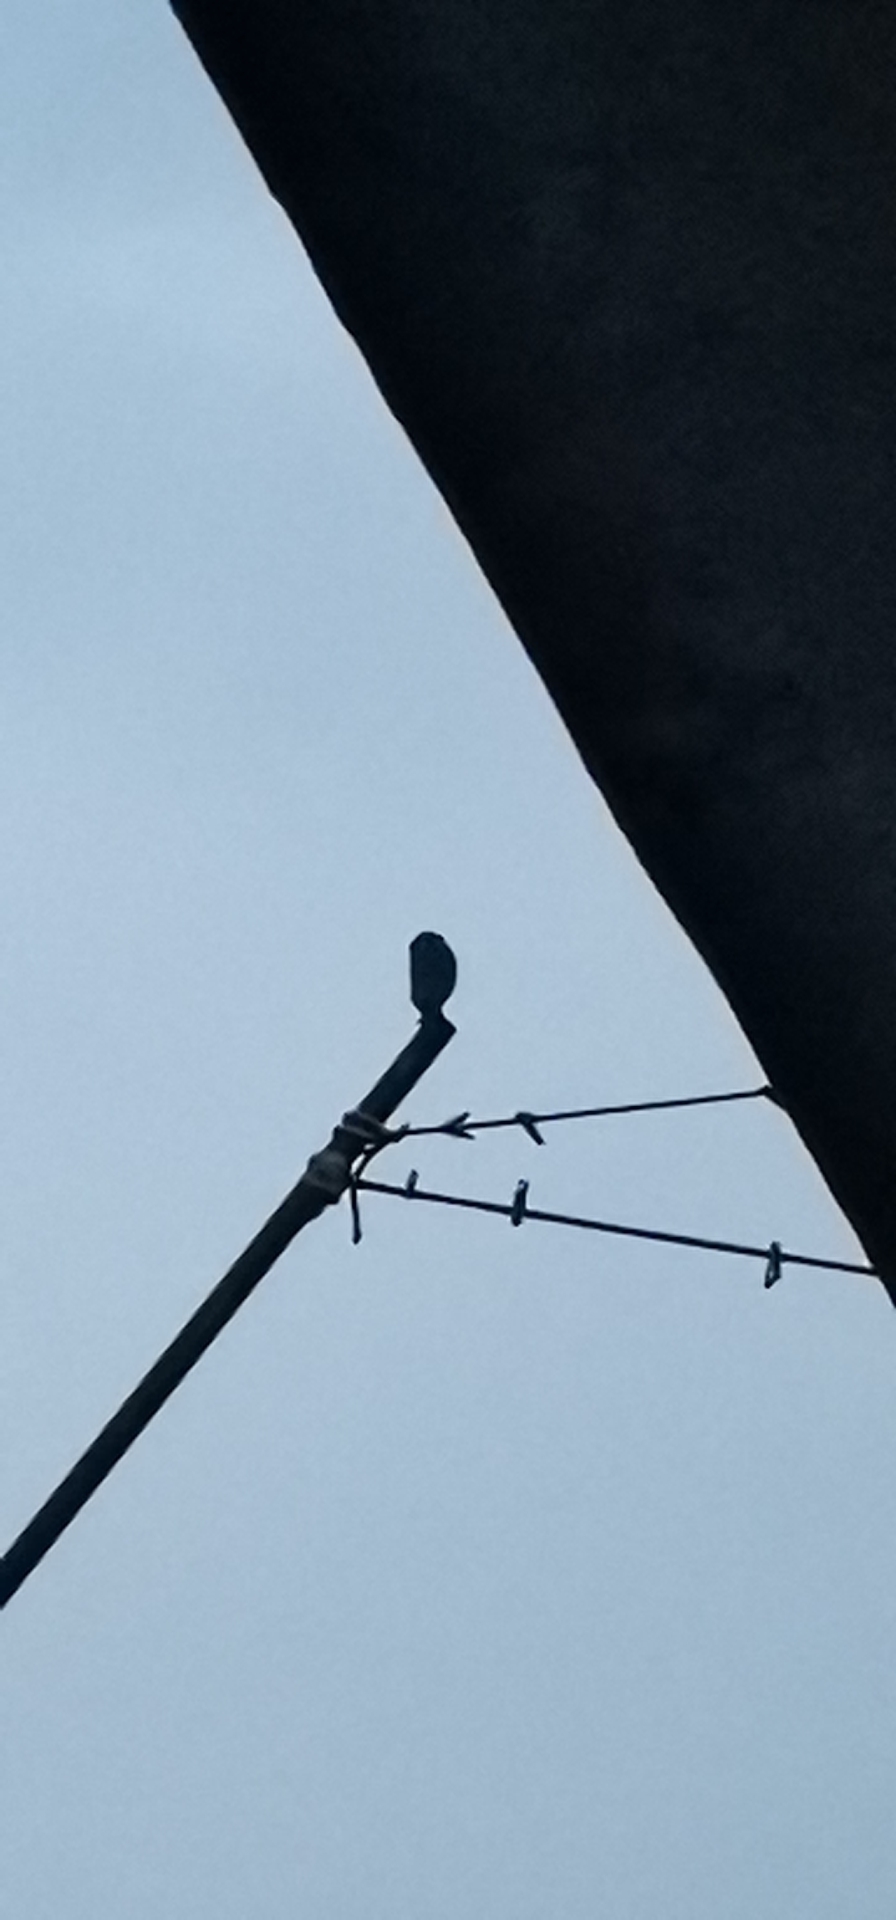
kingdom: Animalia
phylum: Chordata
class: Aves
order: Strigiformes
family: Strigidae
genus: Glaucidium
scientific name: Glaucidium brasilianum
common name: Ferruginous pygmy-owl
